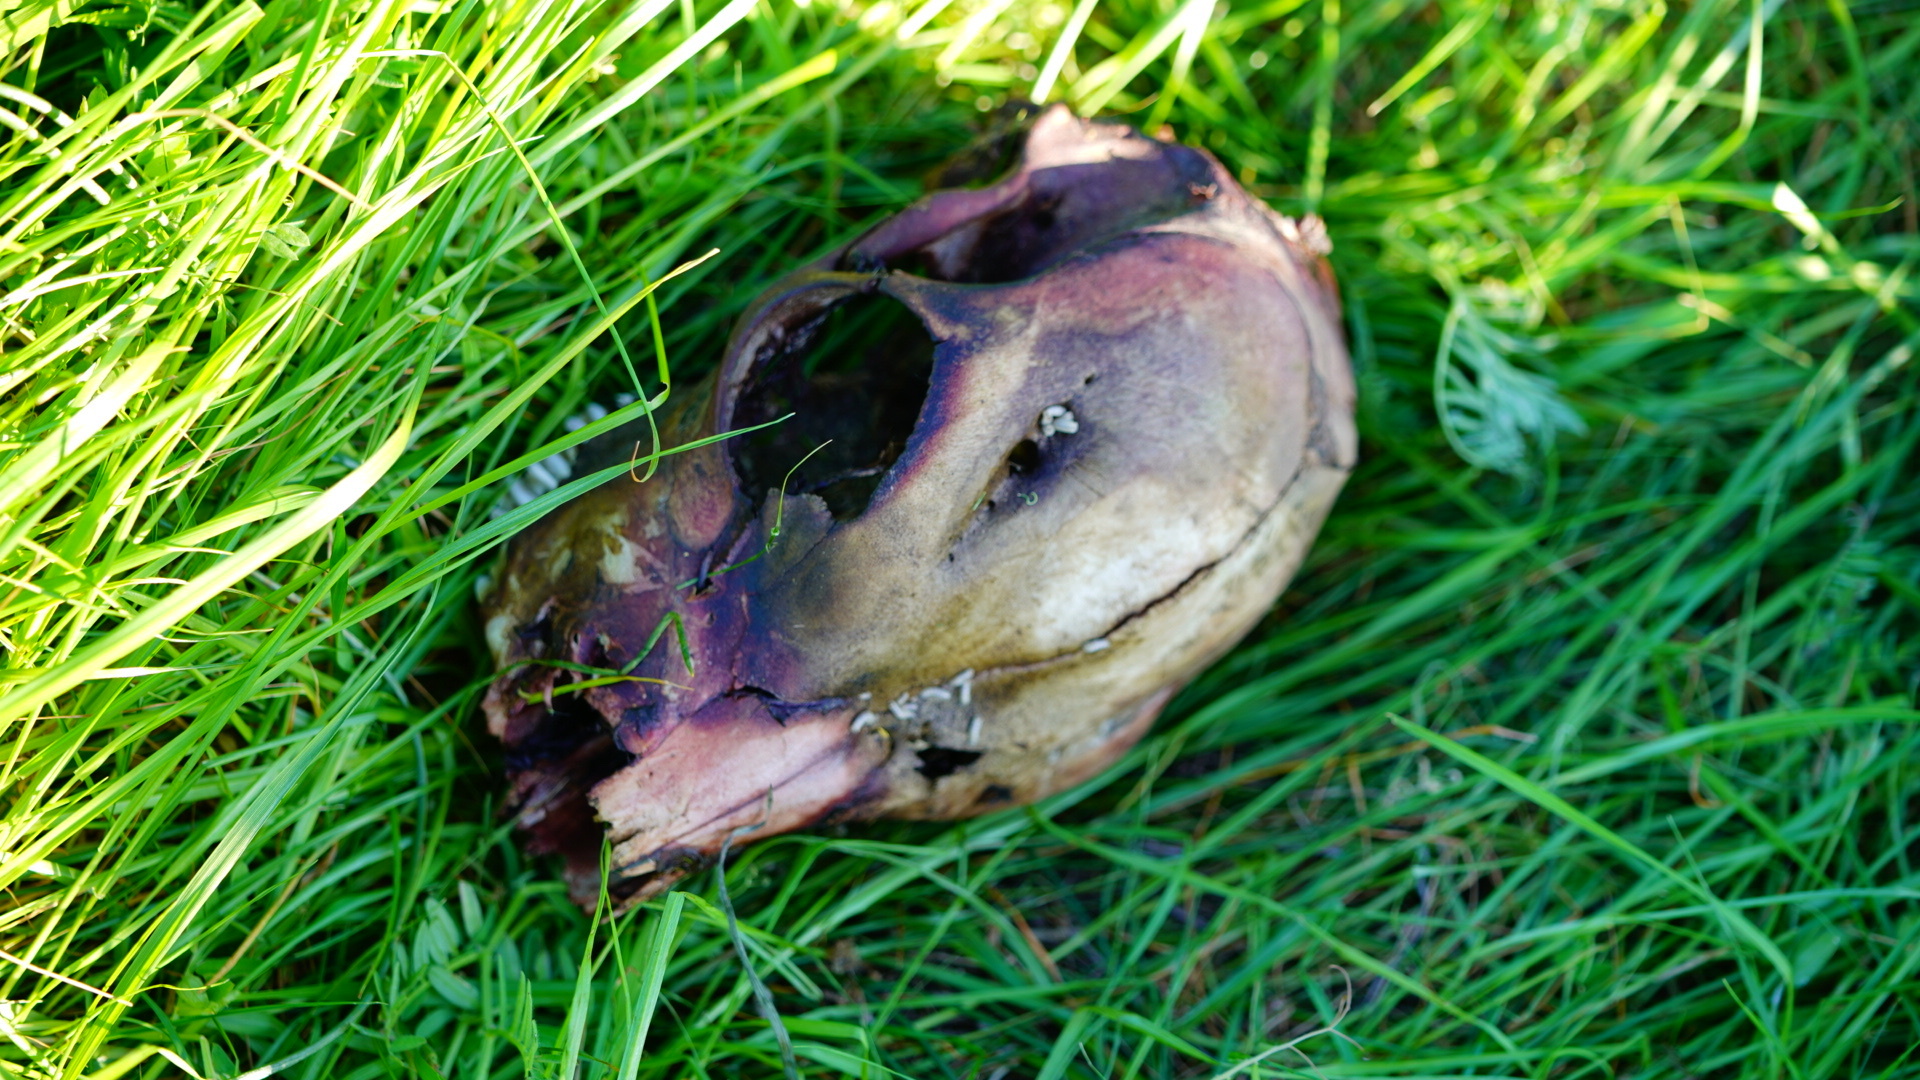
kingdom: Animalia
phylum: Chordata
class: Mammalia
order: Artiodactyla
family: Cervidae
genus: Odocoileus
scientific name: Odocoileus hemionus
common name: Mule deer
